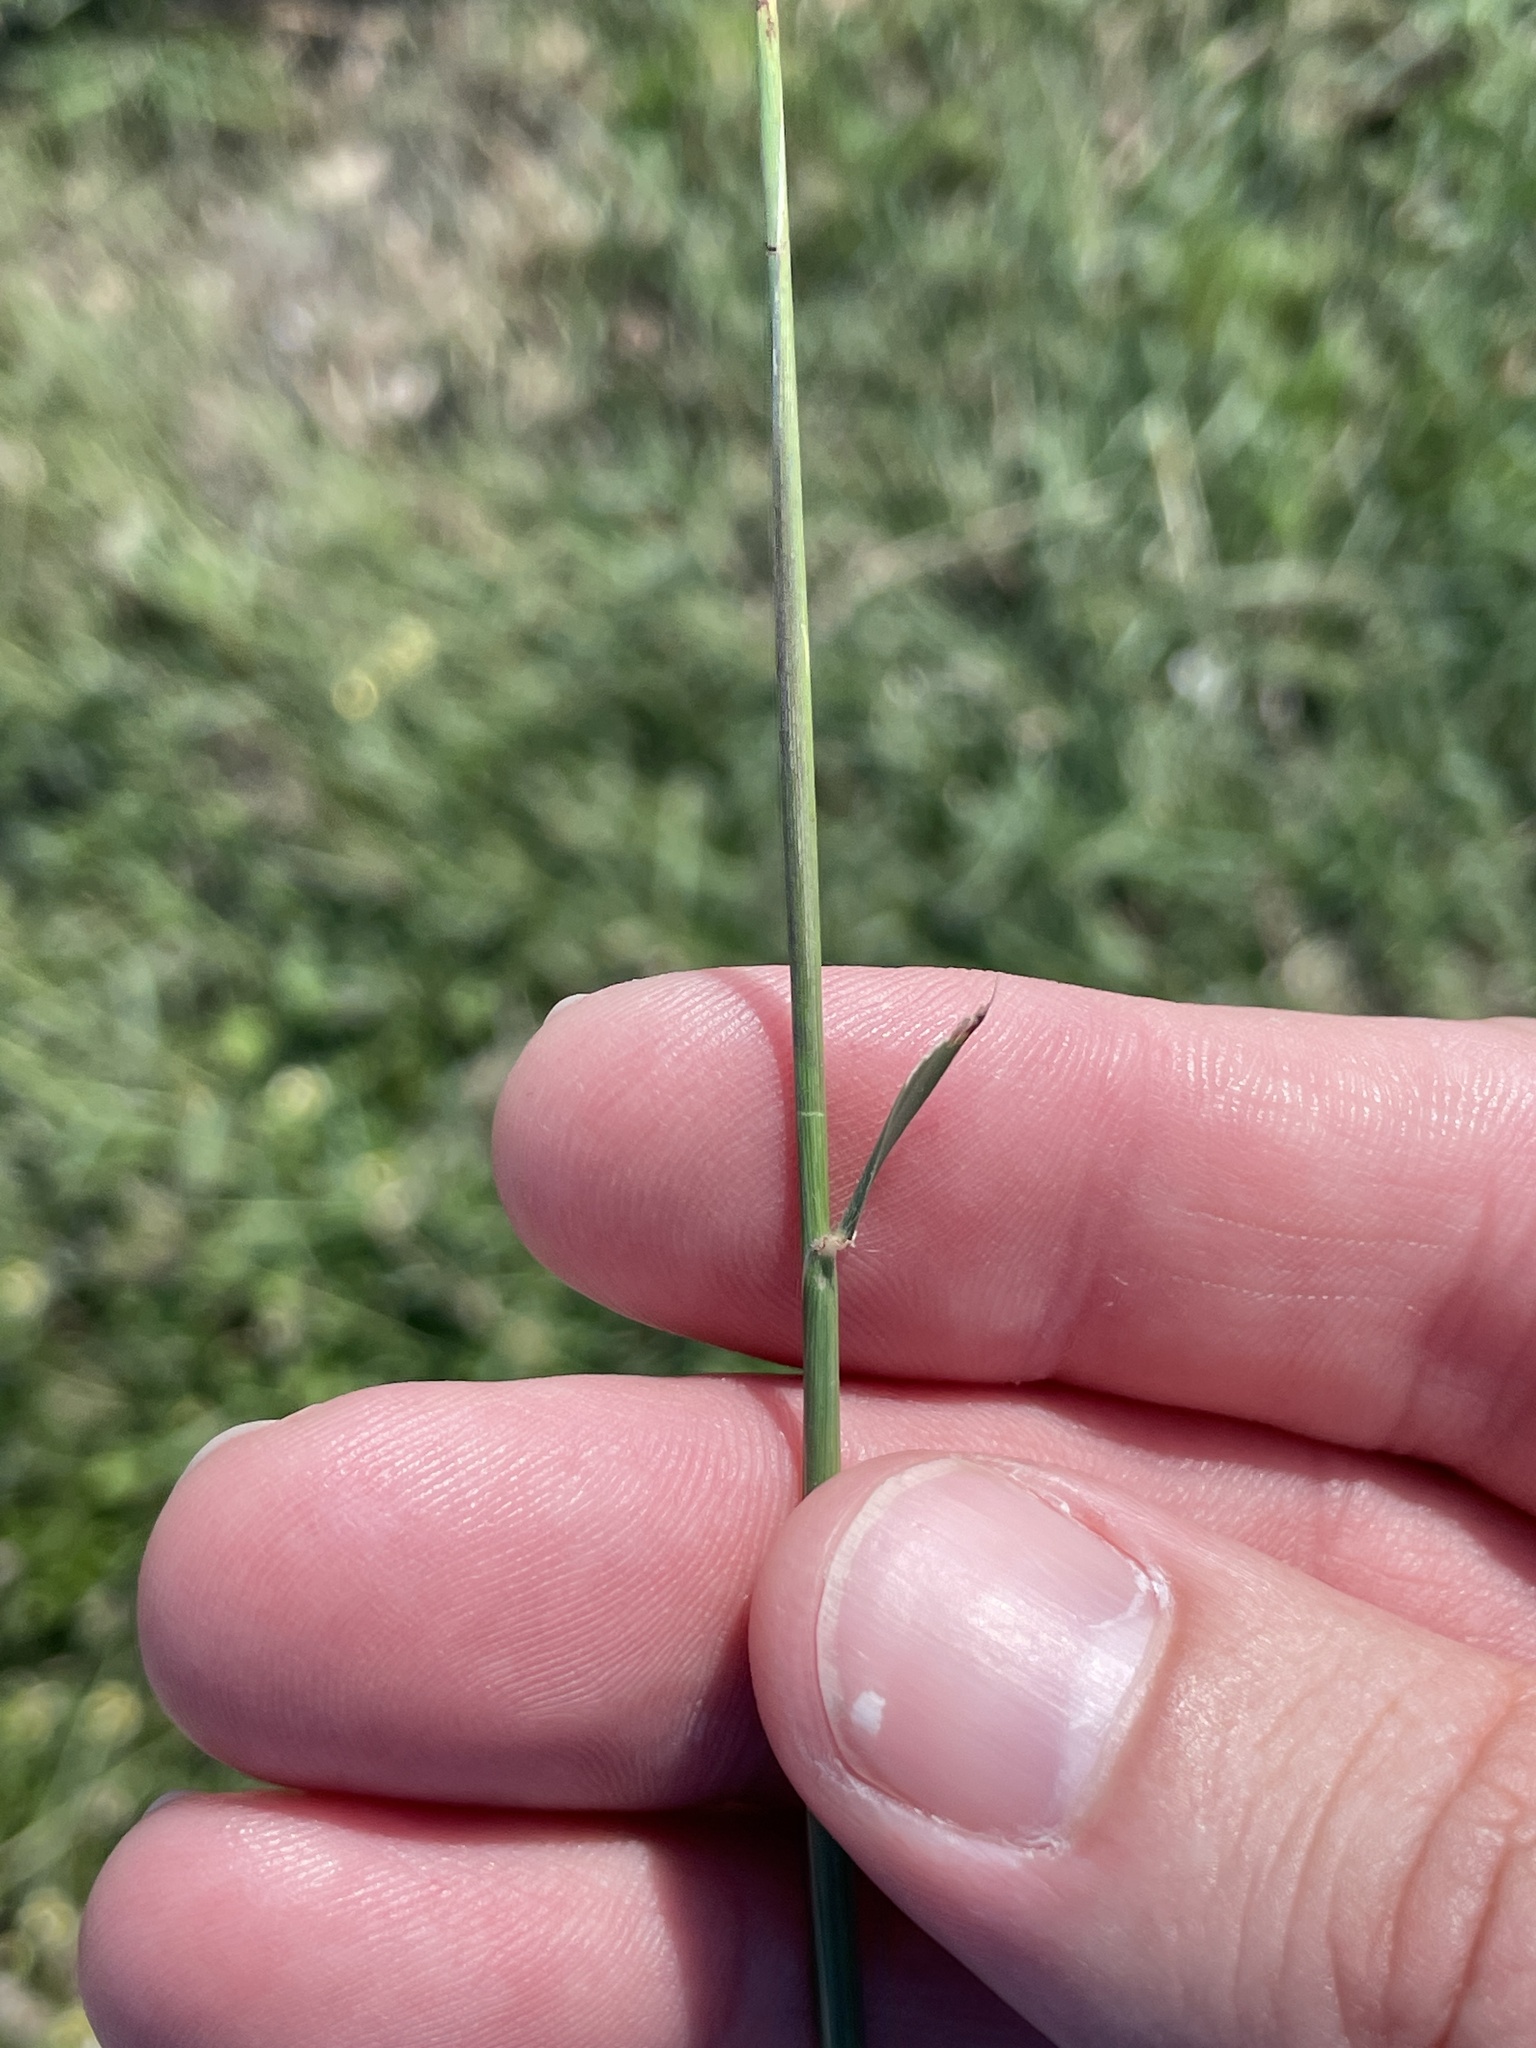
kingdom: Plantae
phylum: Tracheophyta
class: Liliopsida
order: Poales
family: Poaceae
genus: Dichanthium
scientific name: Dichanthium annulatum
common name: Kleberg's bluestem
